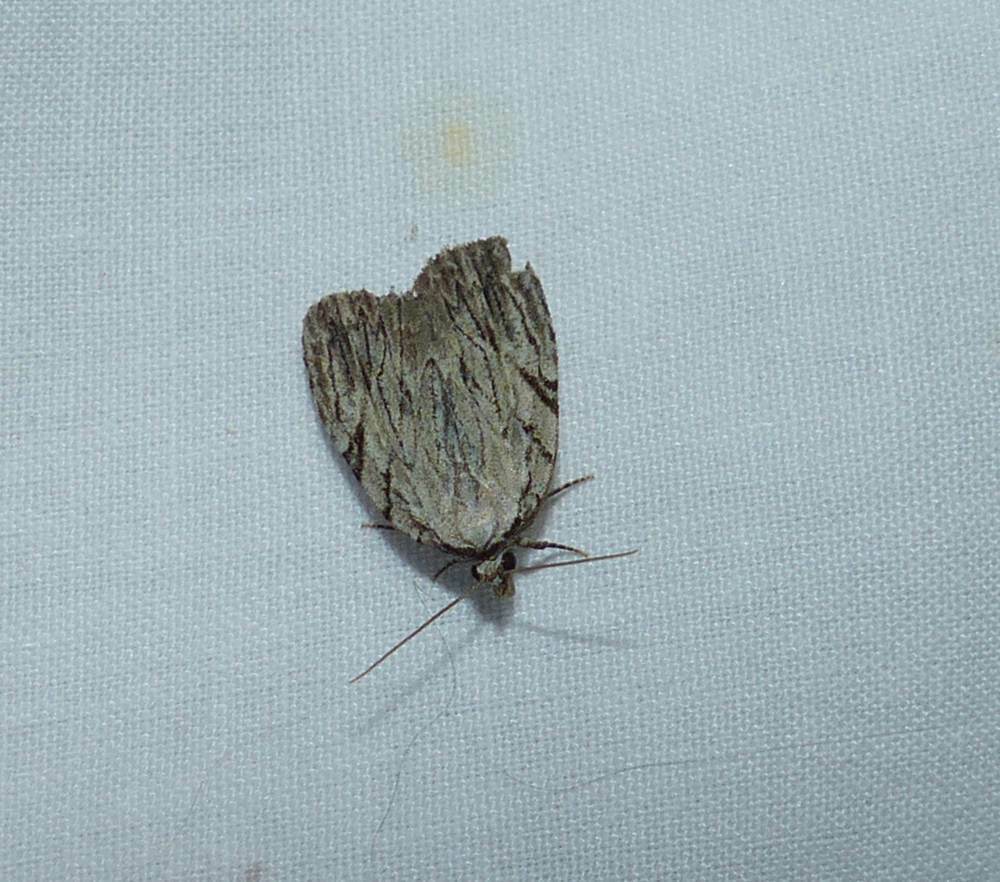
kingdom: Animalia
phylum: Arthropoda
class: Insecta
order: Lepidoptera
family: Noctuidae
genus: Balsa
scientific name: Balsa tristrigella
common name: Three-lined balsa moth
